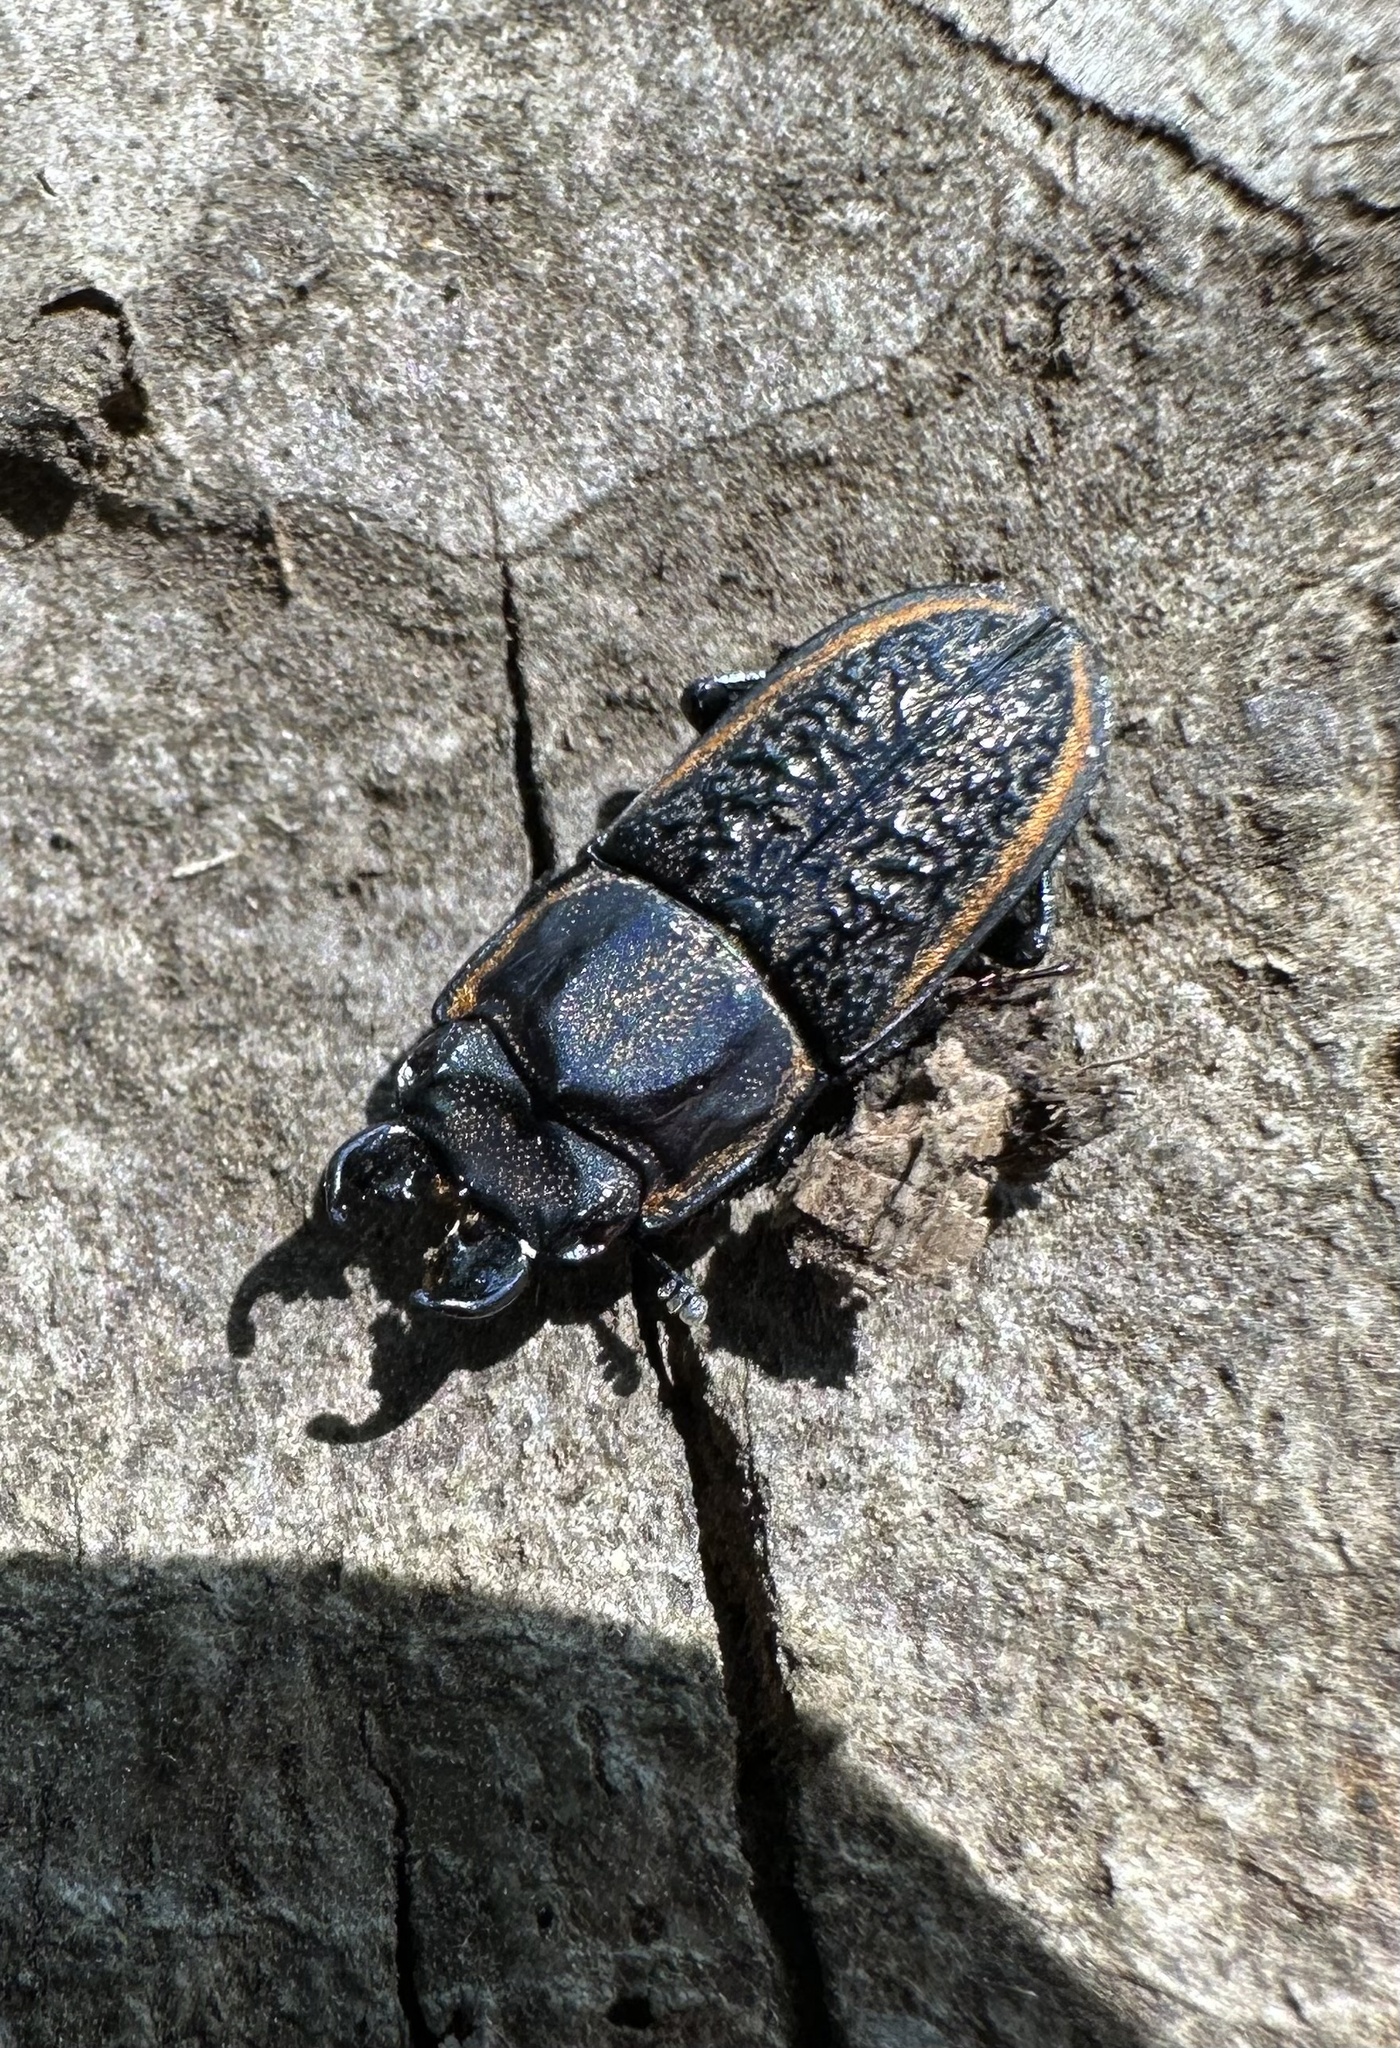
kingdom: Animalia
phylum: Arthropoda
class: Insecta
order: Coleoptera
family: Lucanidae
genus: Pycnosiphorus
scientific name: Pycnosiphorus lessonii
